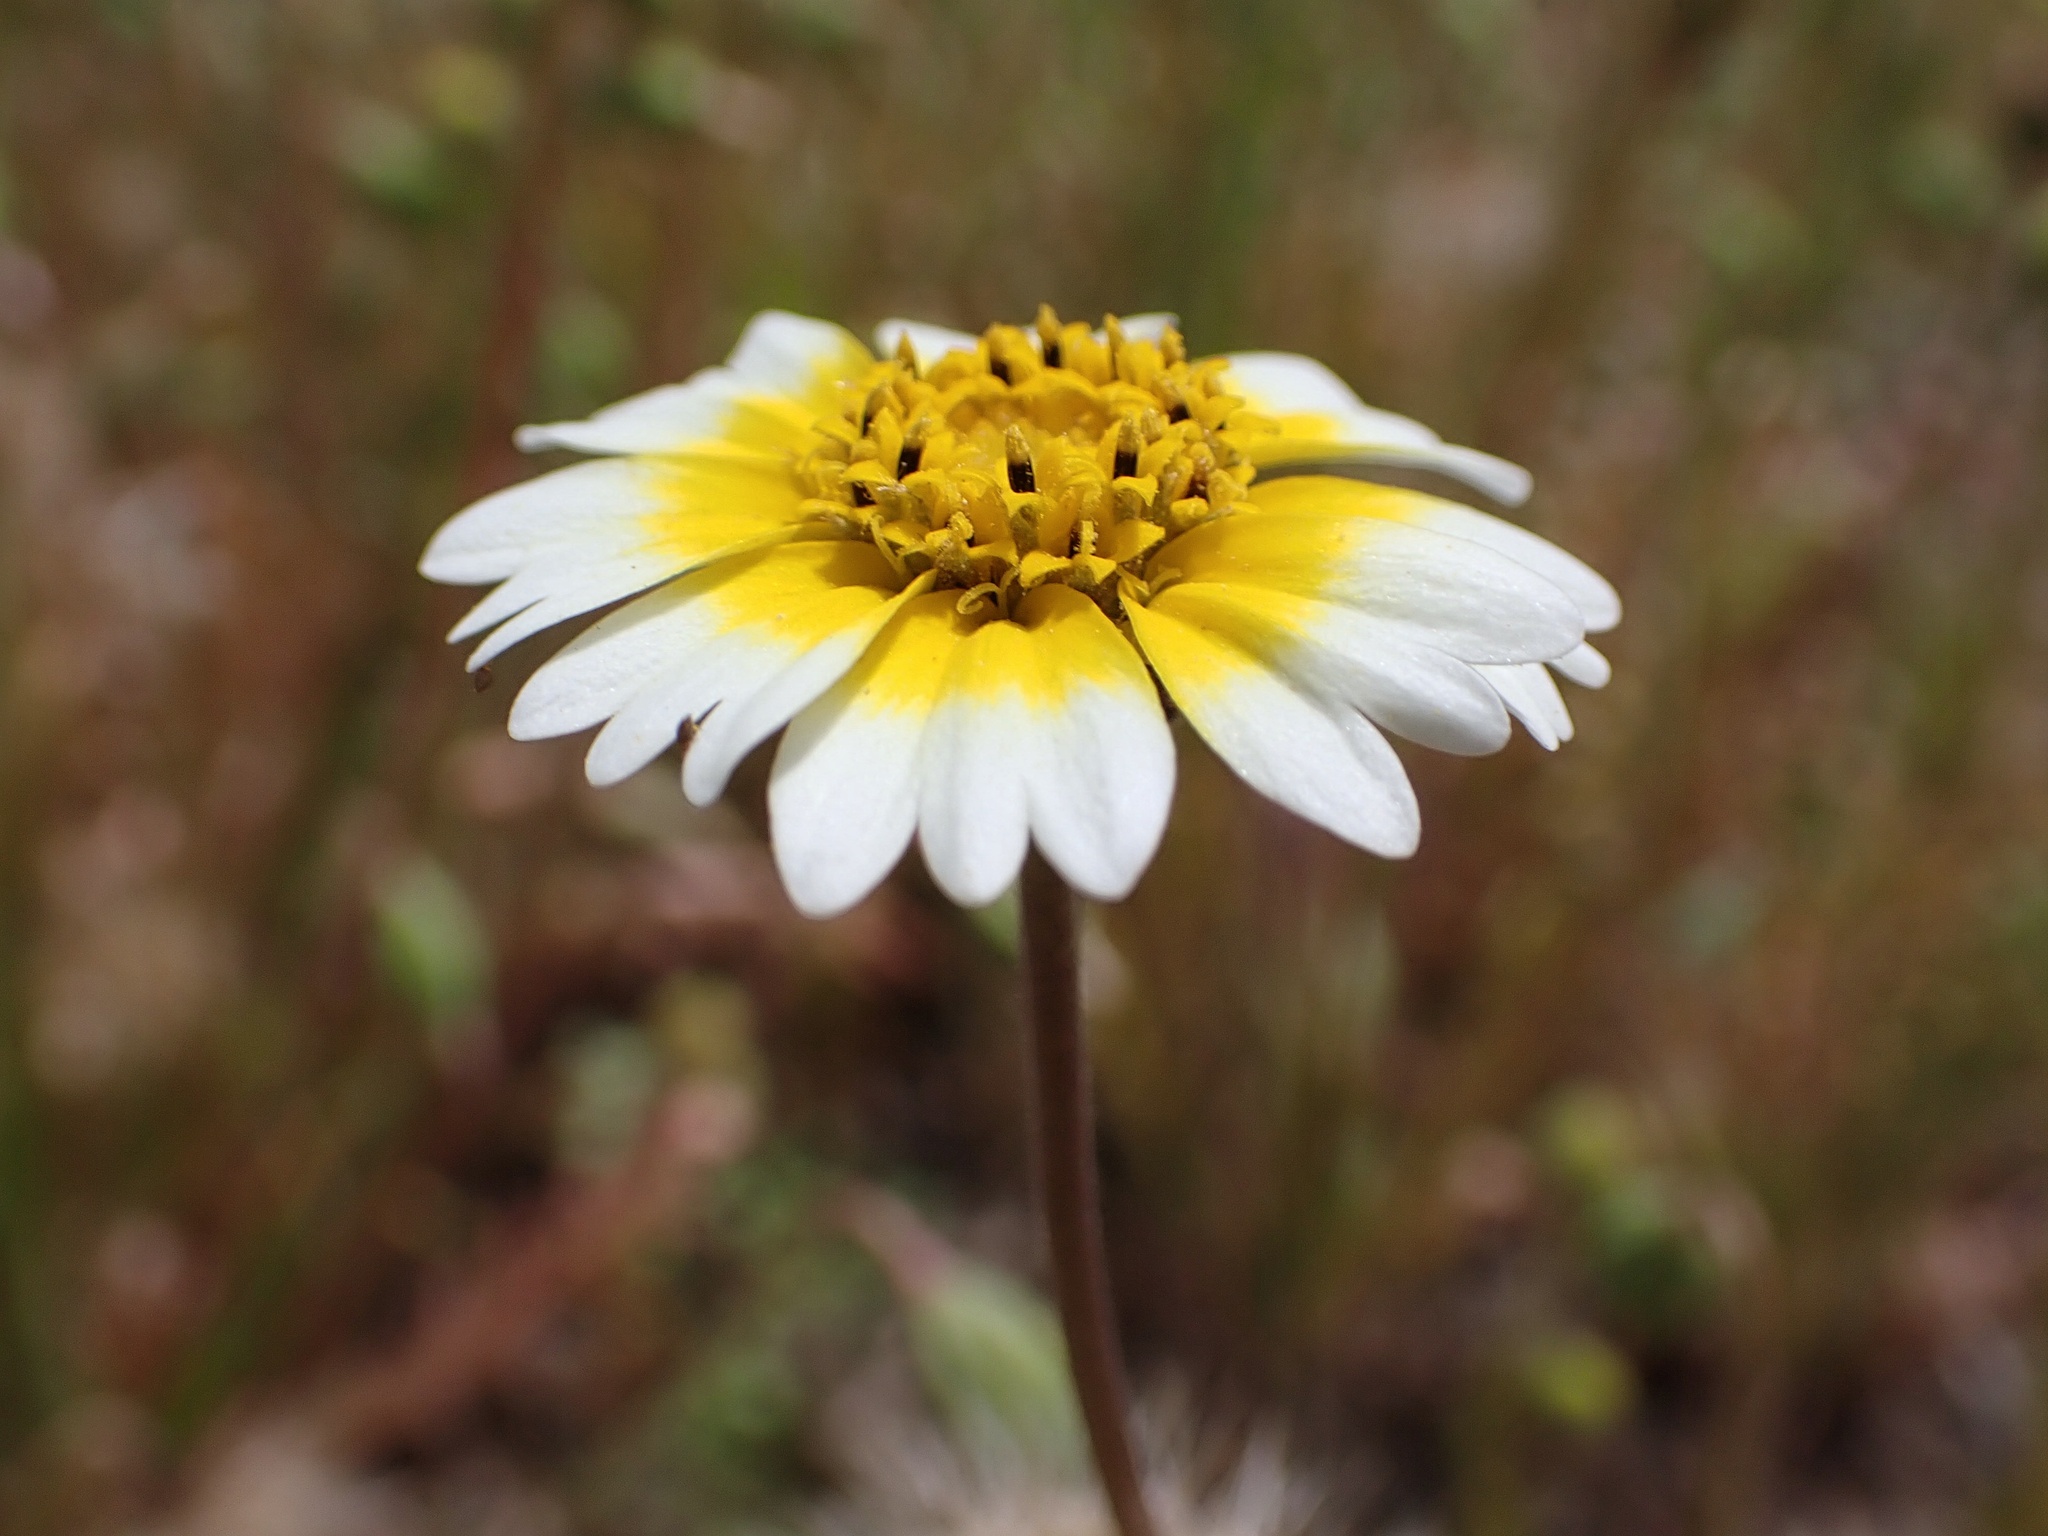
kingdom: Plantae
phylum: Tracheophyta
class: Magnoliopsida
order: Asterales
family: Asteraceae
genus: Layia
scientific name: Layia munzii
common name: Munz's tidy-tips
